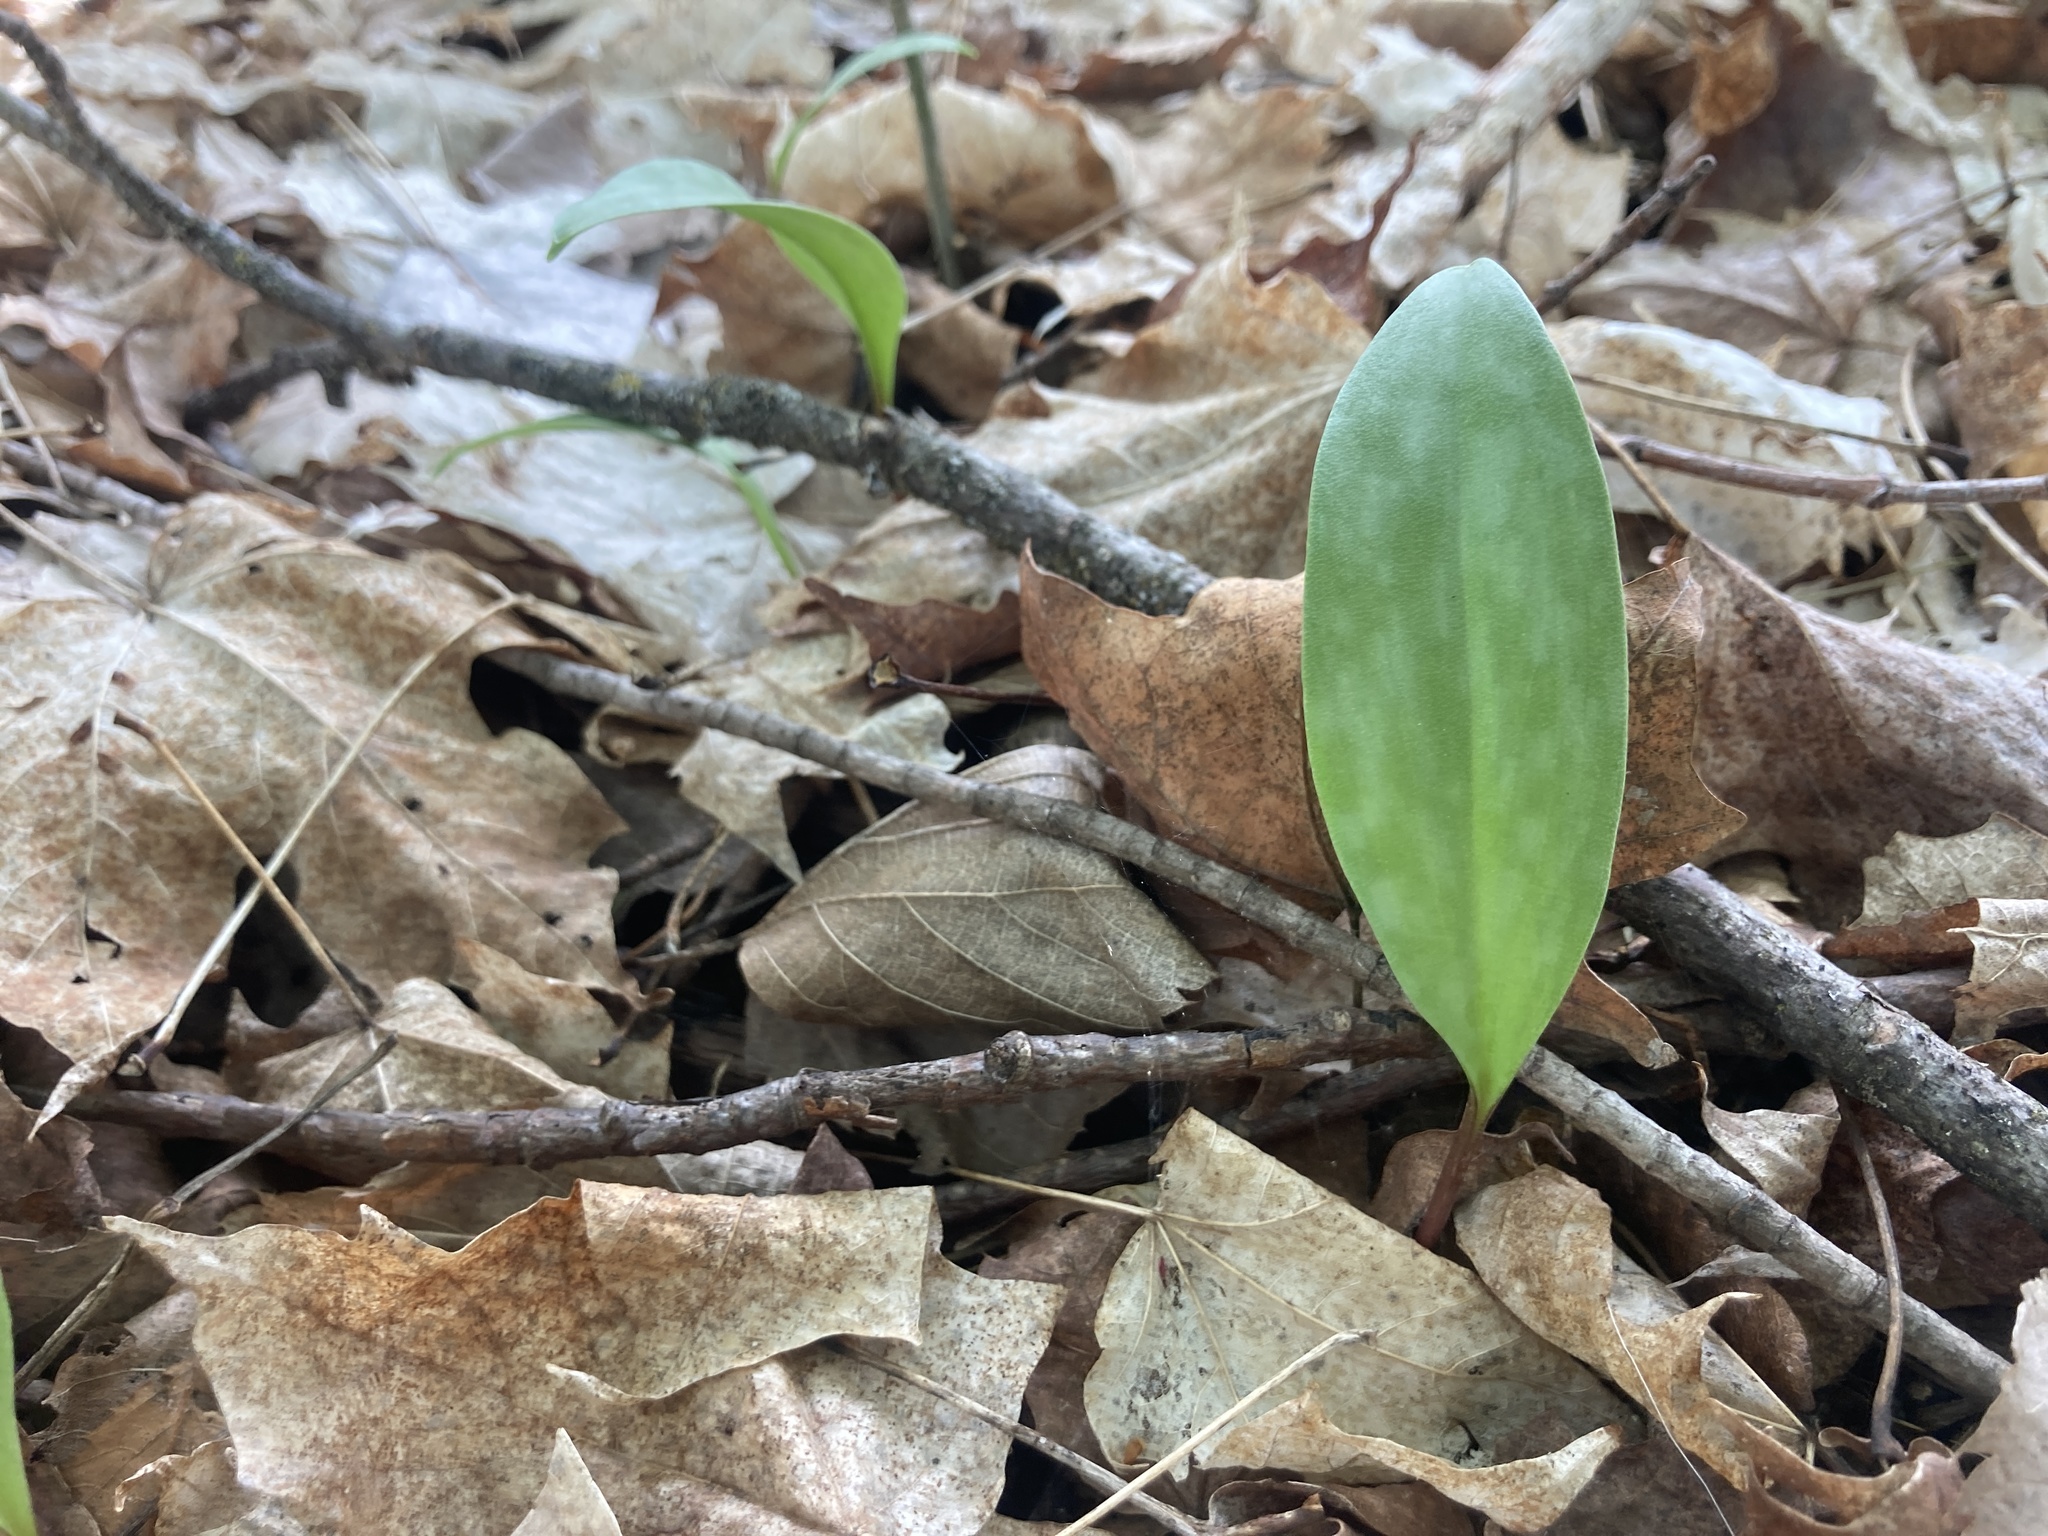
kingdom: Plantae
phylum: Tracheophyta
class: Liliopsida
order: Liliales
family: Liliaceae
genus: Erythronium
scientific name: Erythronium americanum
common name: Yellow adder's-tongue
